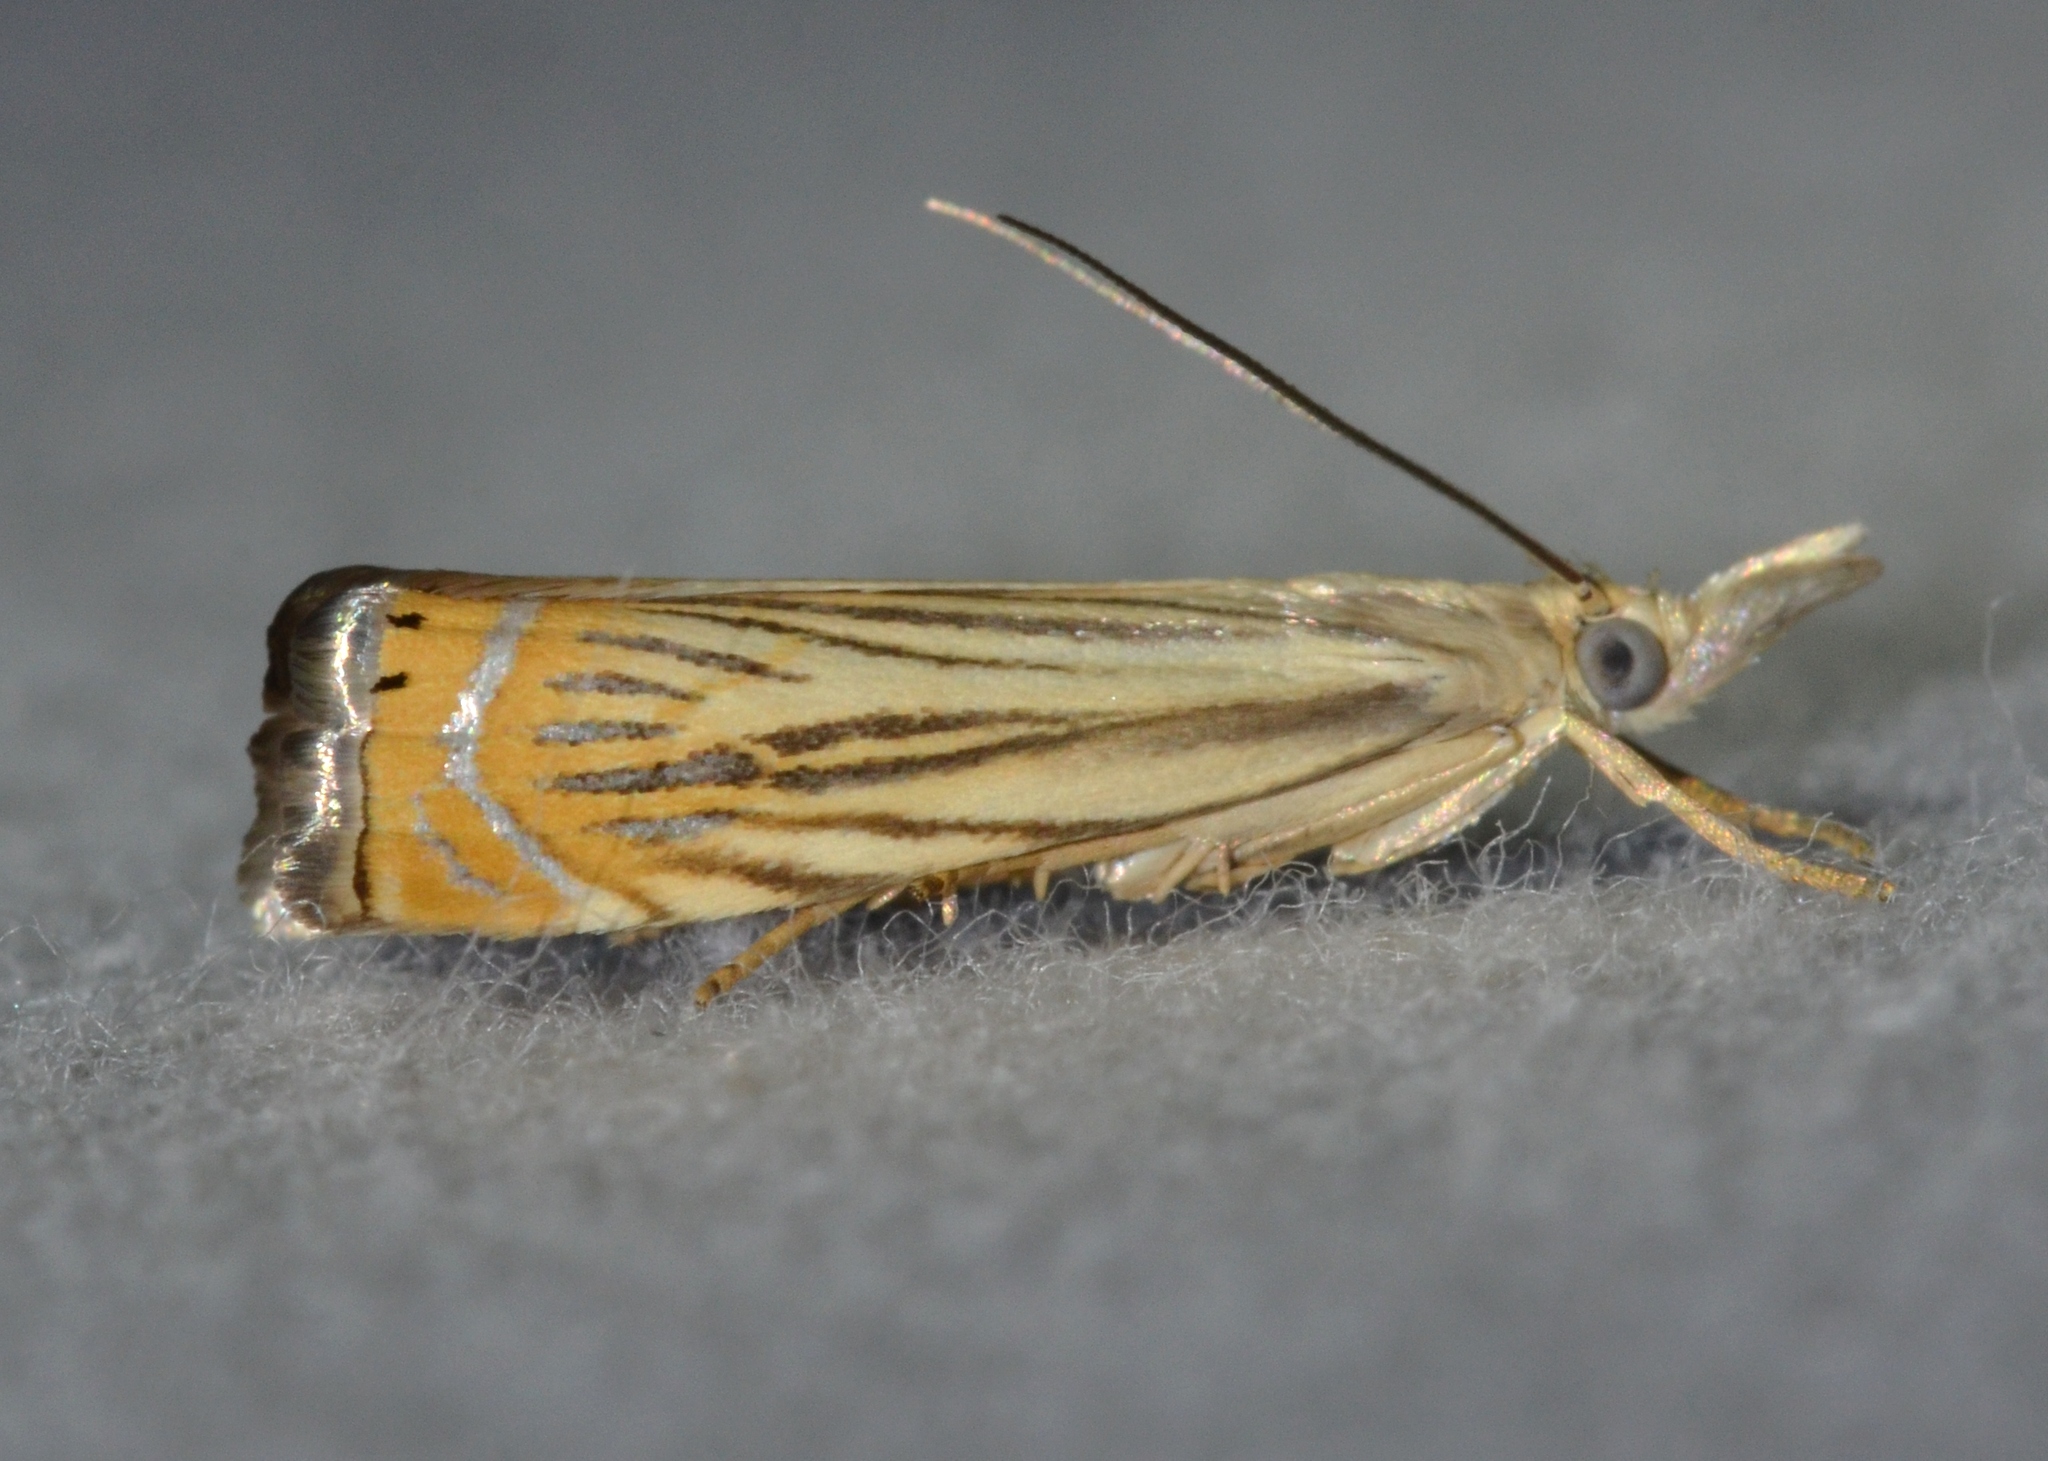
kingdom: Animalia
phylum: Arthropoda
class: Insecta
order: Lepidoptera
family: Crambidae
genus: Chrysoteuchia
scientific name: Chrysoteuchia topiarius
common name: Topiary grass-veneer
